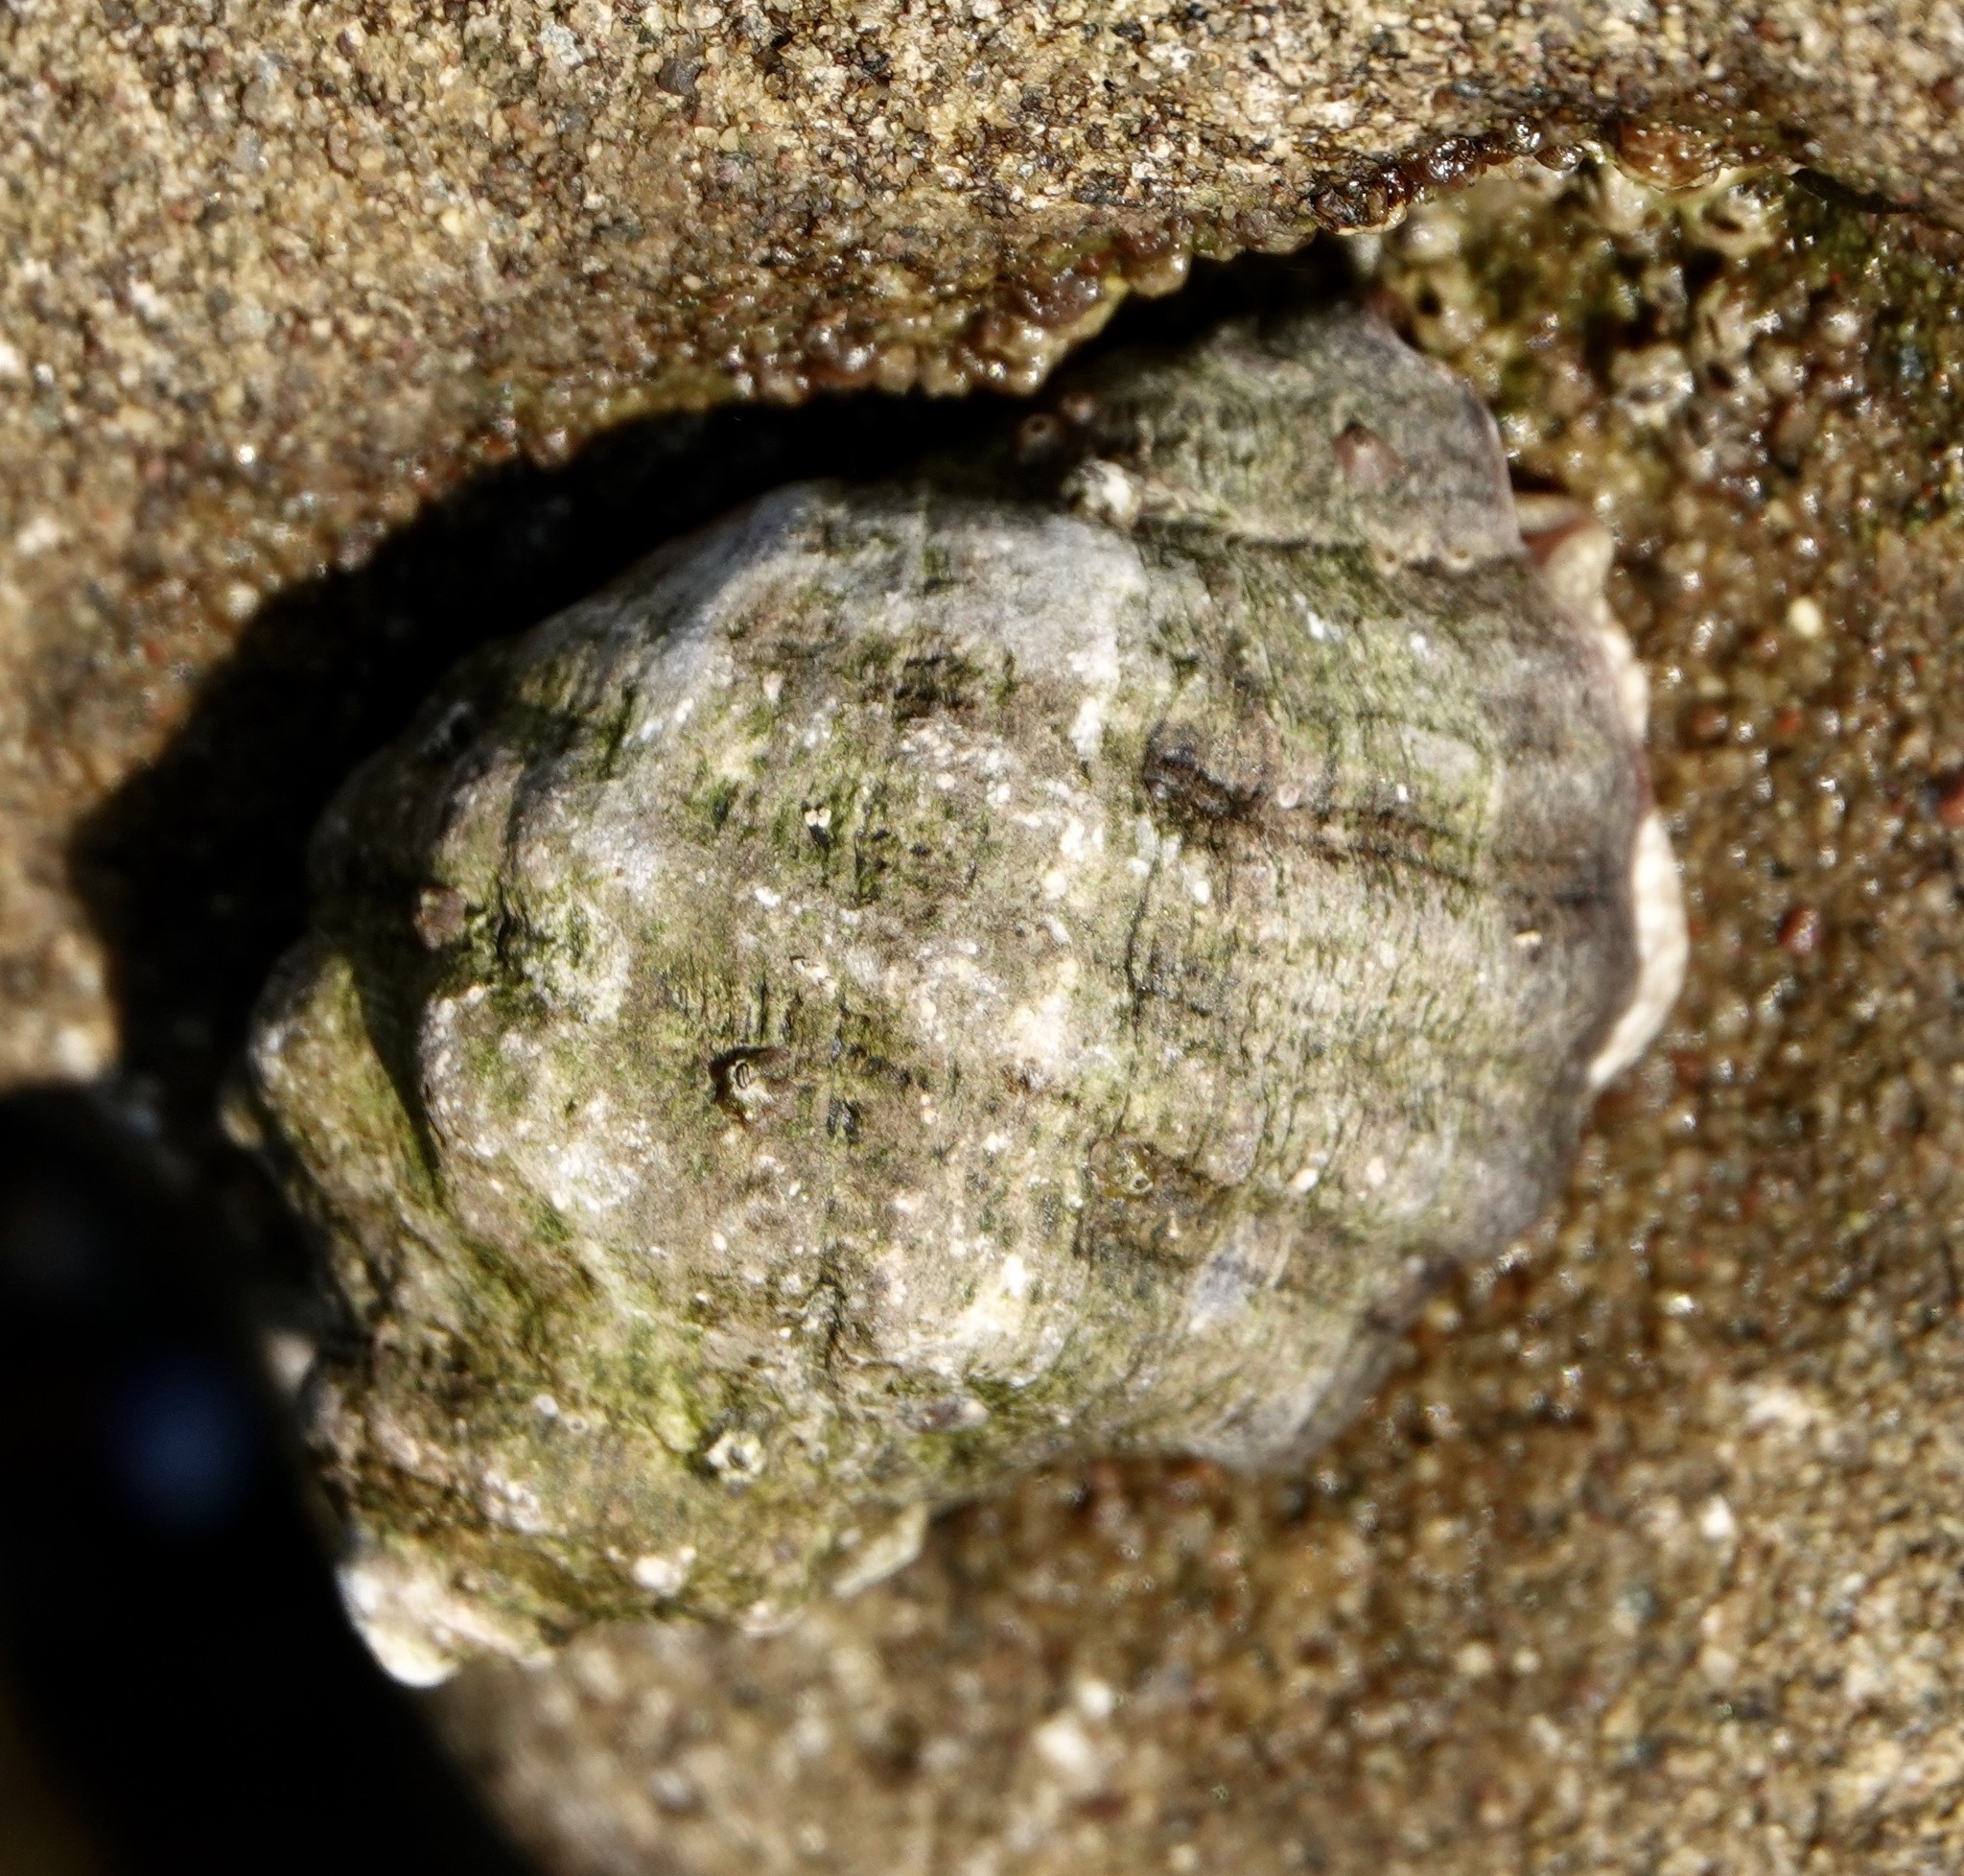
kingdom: Animalia
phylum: Mollusca
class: Gastropoda
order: Neogastropoda
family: Muricidae
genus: Mexacanthina
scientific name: Mexacanthina lugubris
